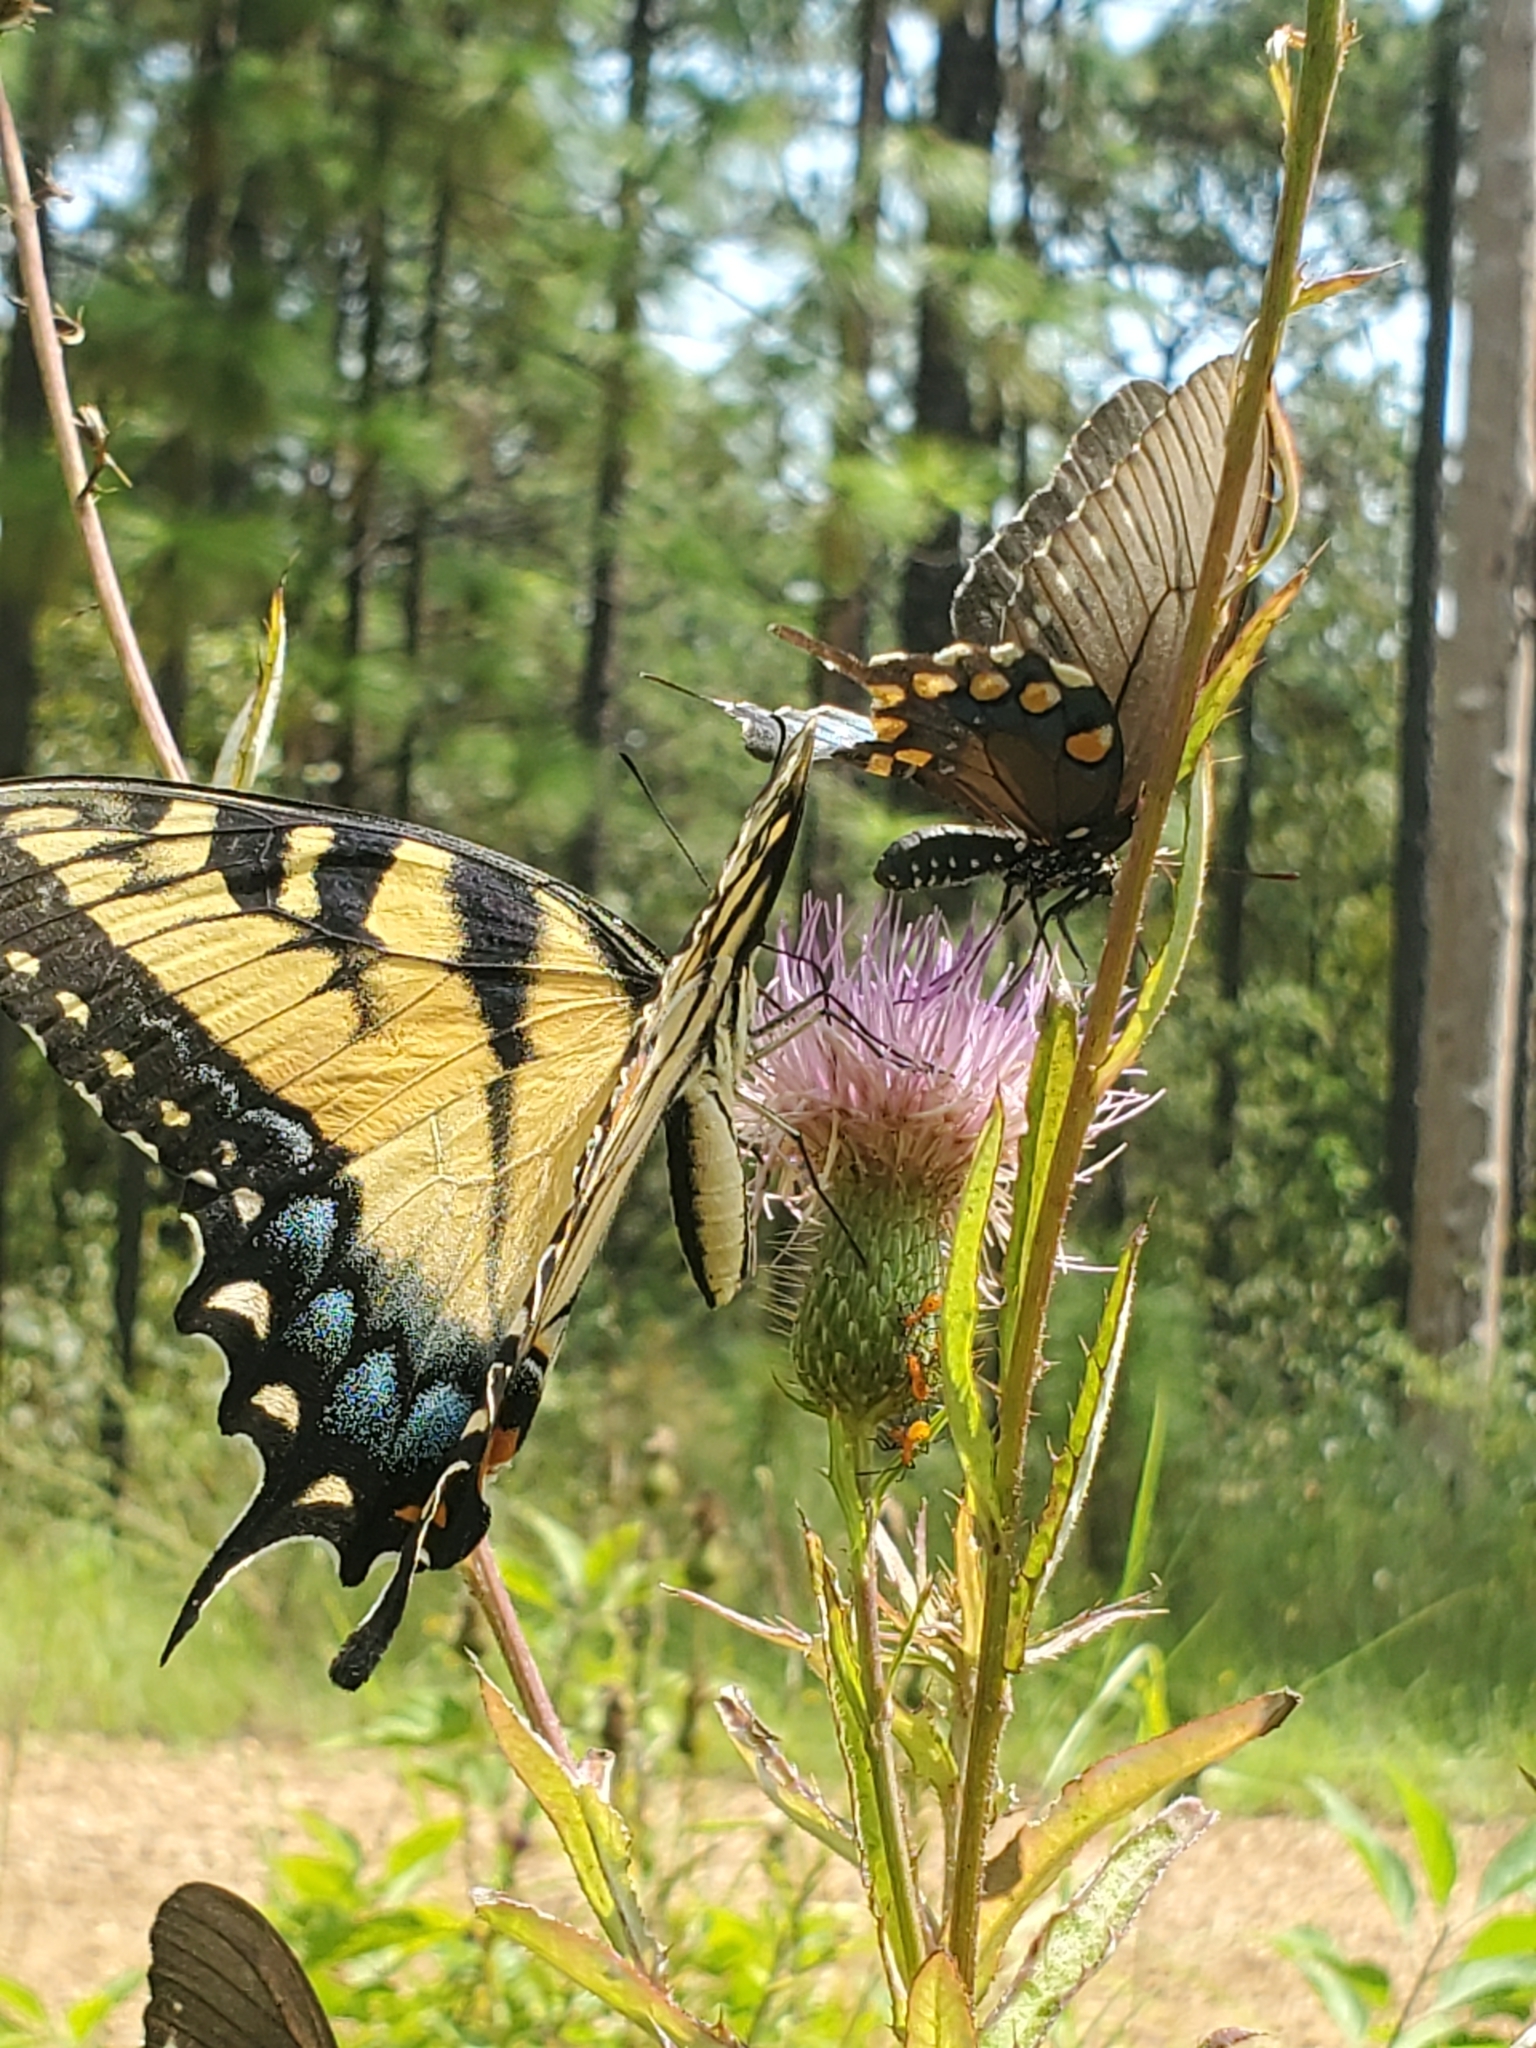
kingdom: Animalia
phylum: Arthropoda
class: Insecta
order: Lepidoptera
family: Papilionidae
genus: Papilio
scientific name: Papilio glaucus
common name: Tiger swallowtail
